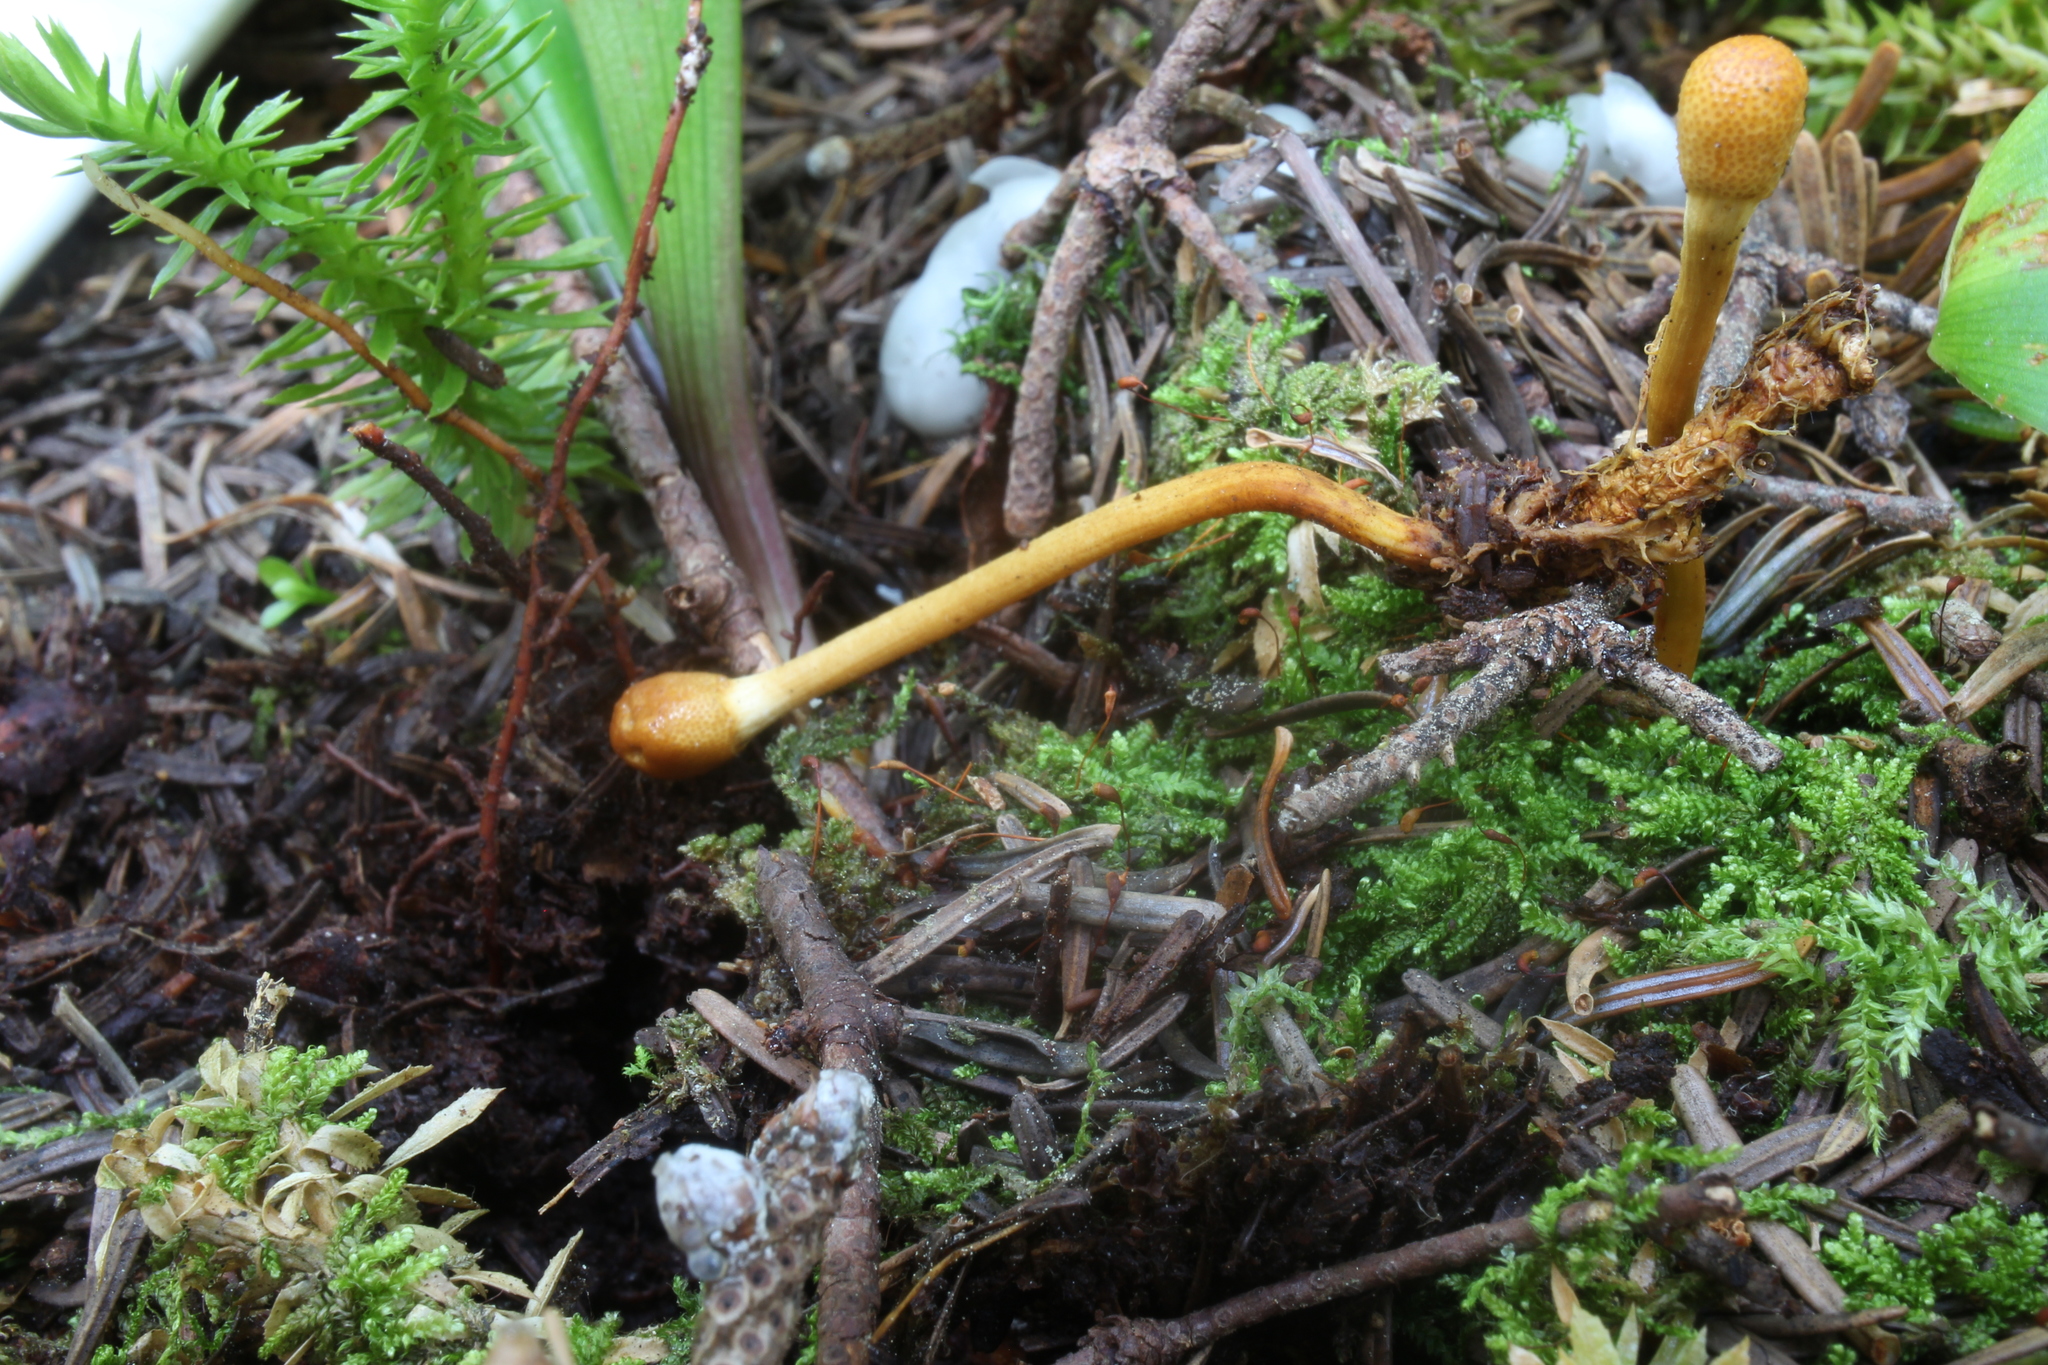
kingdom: Fungi
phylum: Ascomycota
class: Sordariomycetes
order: Hypocreales
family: Ophiocordycipitaceae
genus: Paraisaria
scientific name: Paraisaria gracilis
